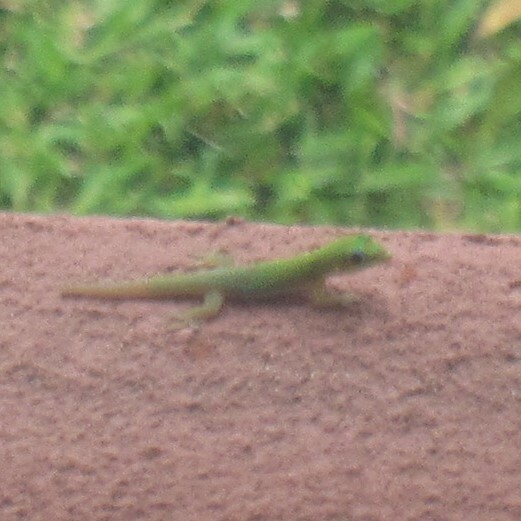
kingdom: Animalia
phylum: Chordata
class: Squamata
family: Gekkonidae
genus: Phelsuma
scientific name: Phelsuma laticauda
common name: Gold dust day gecko
